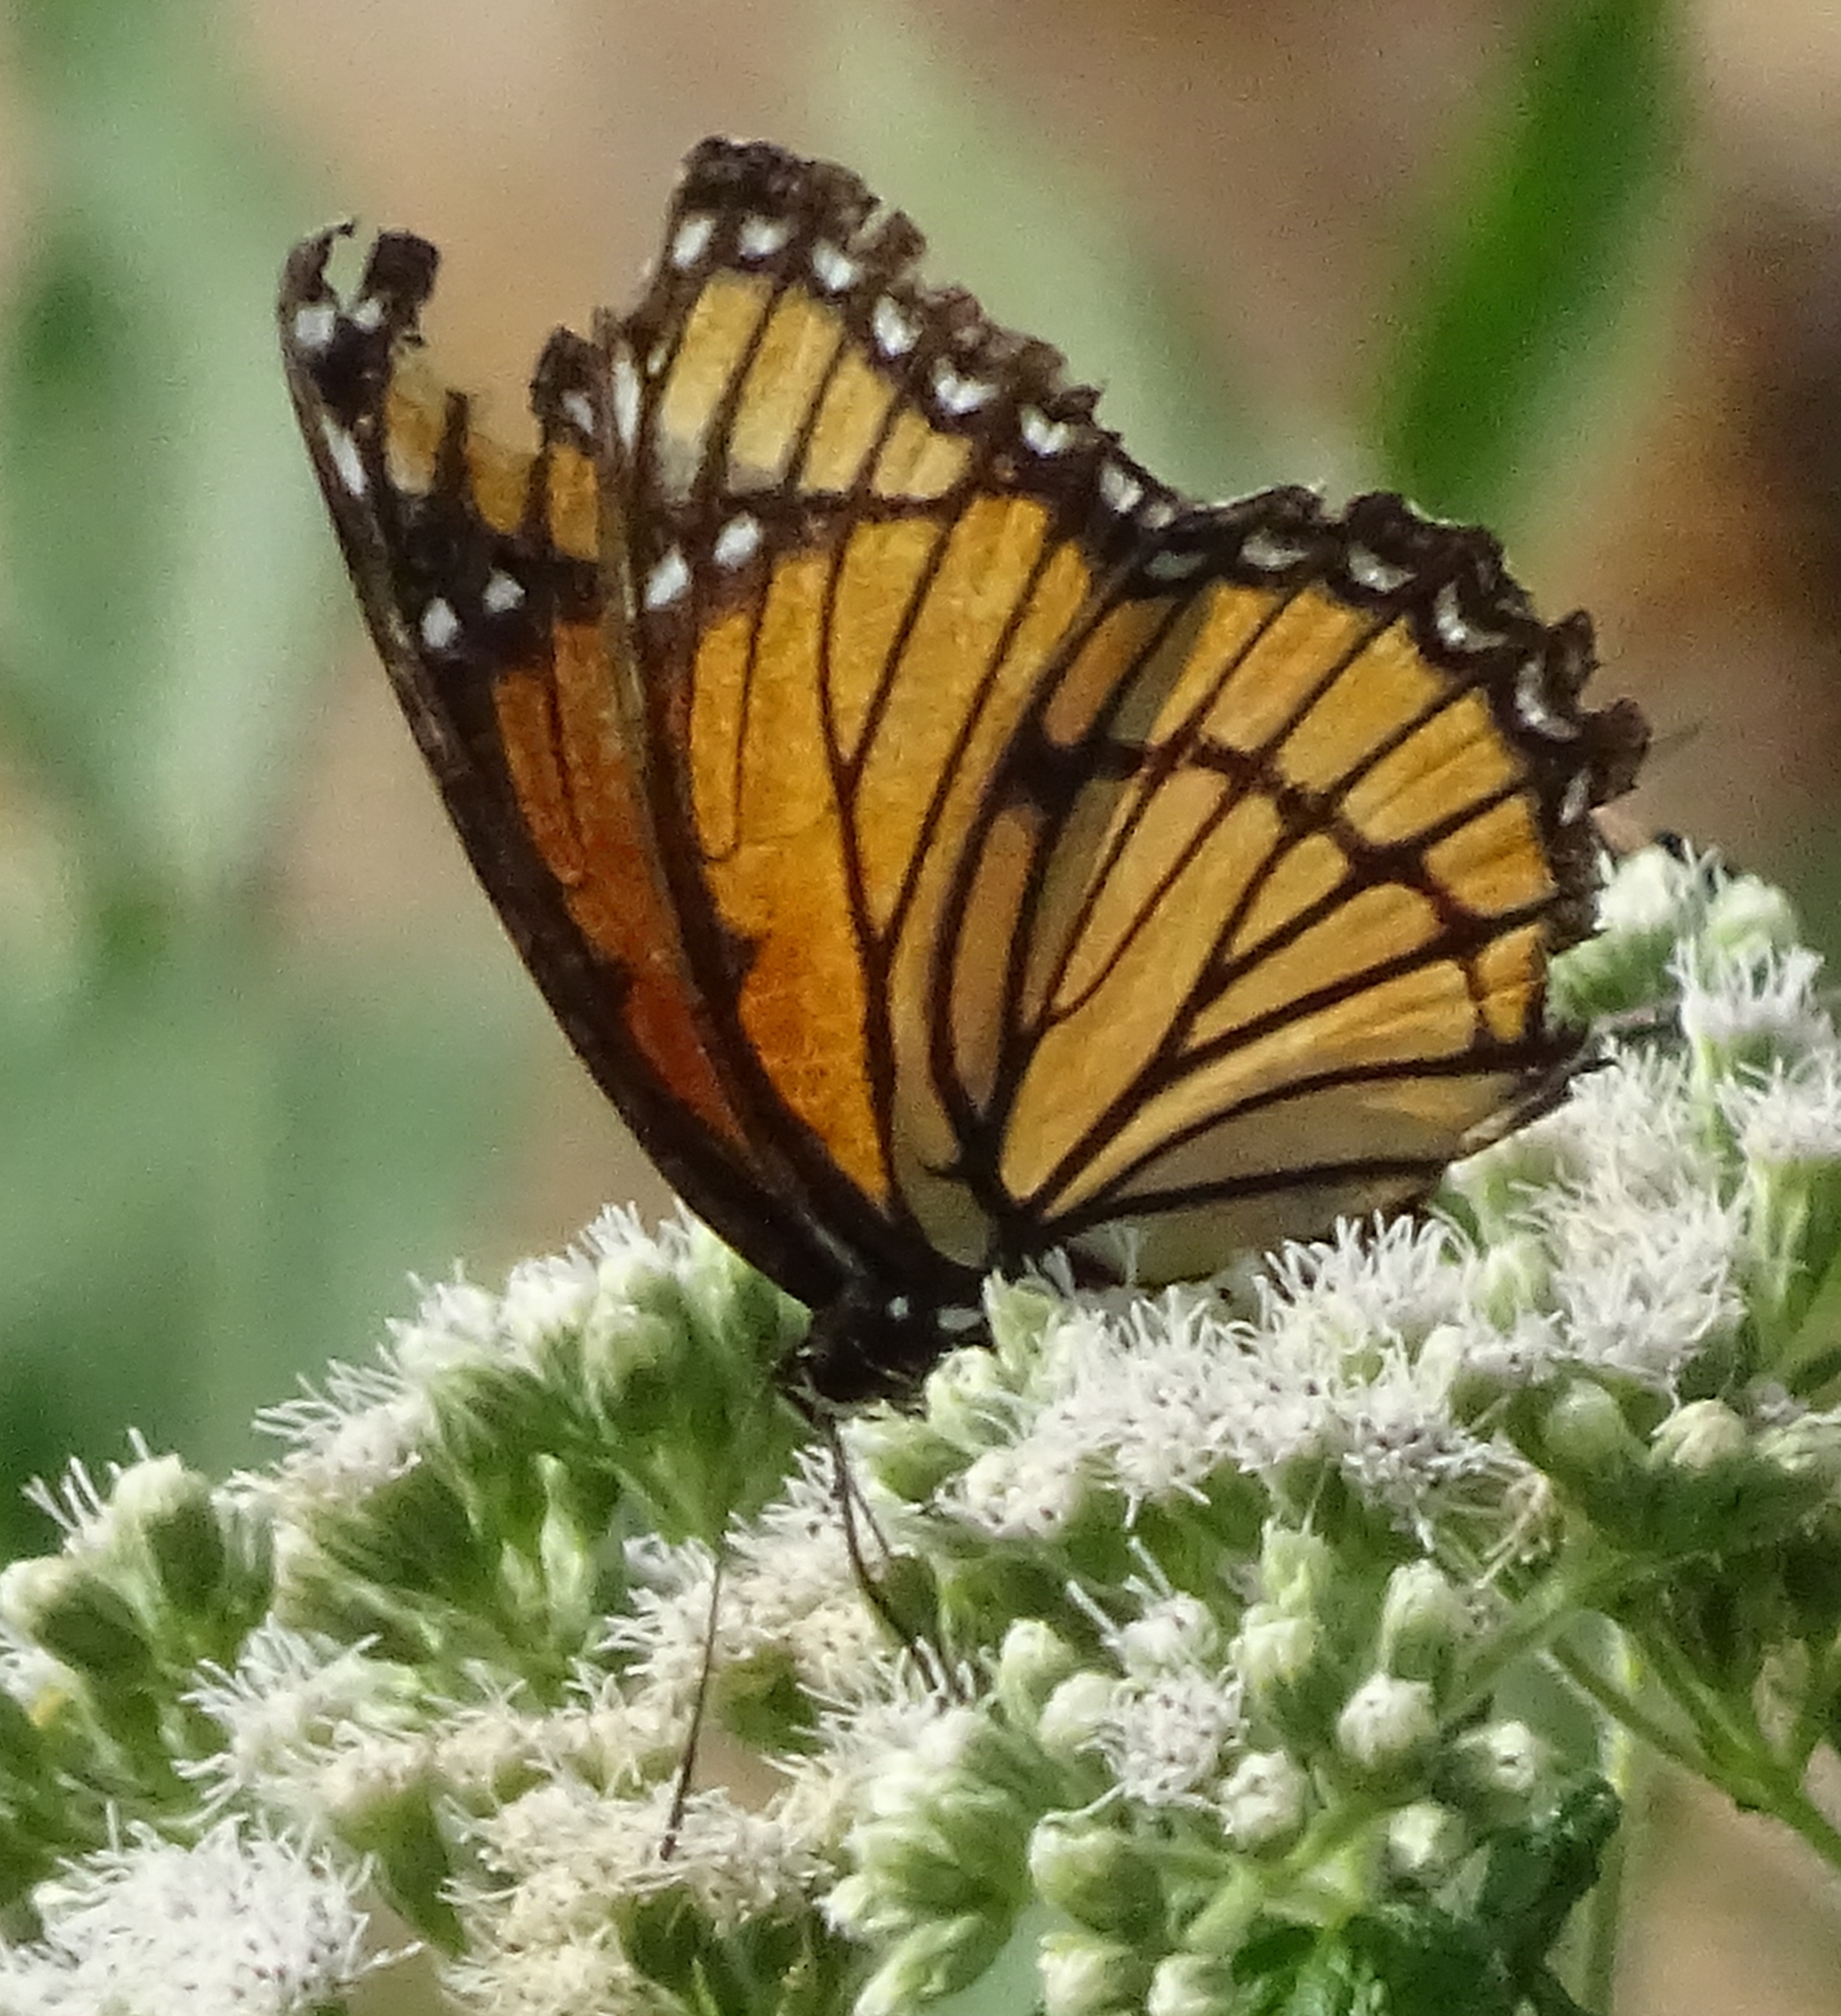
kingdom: Animalia
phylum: Arthropoda
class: Insecta
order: Lepidoptera
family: Nymphalidae
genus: Limenitis
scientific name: Limenitis archippus
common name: Viceroy
